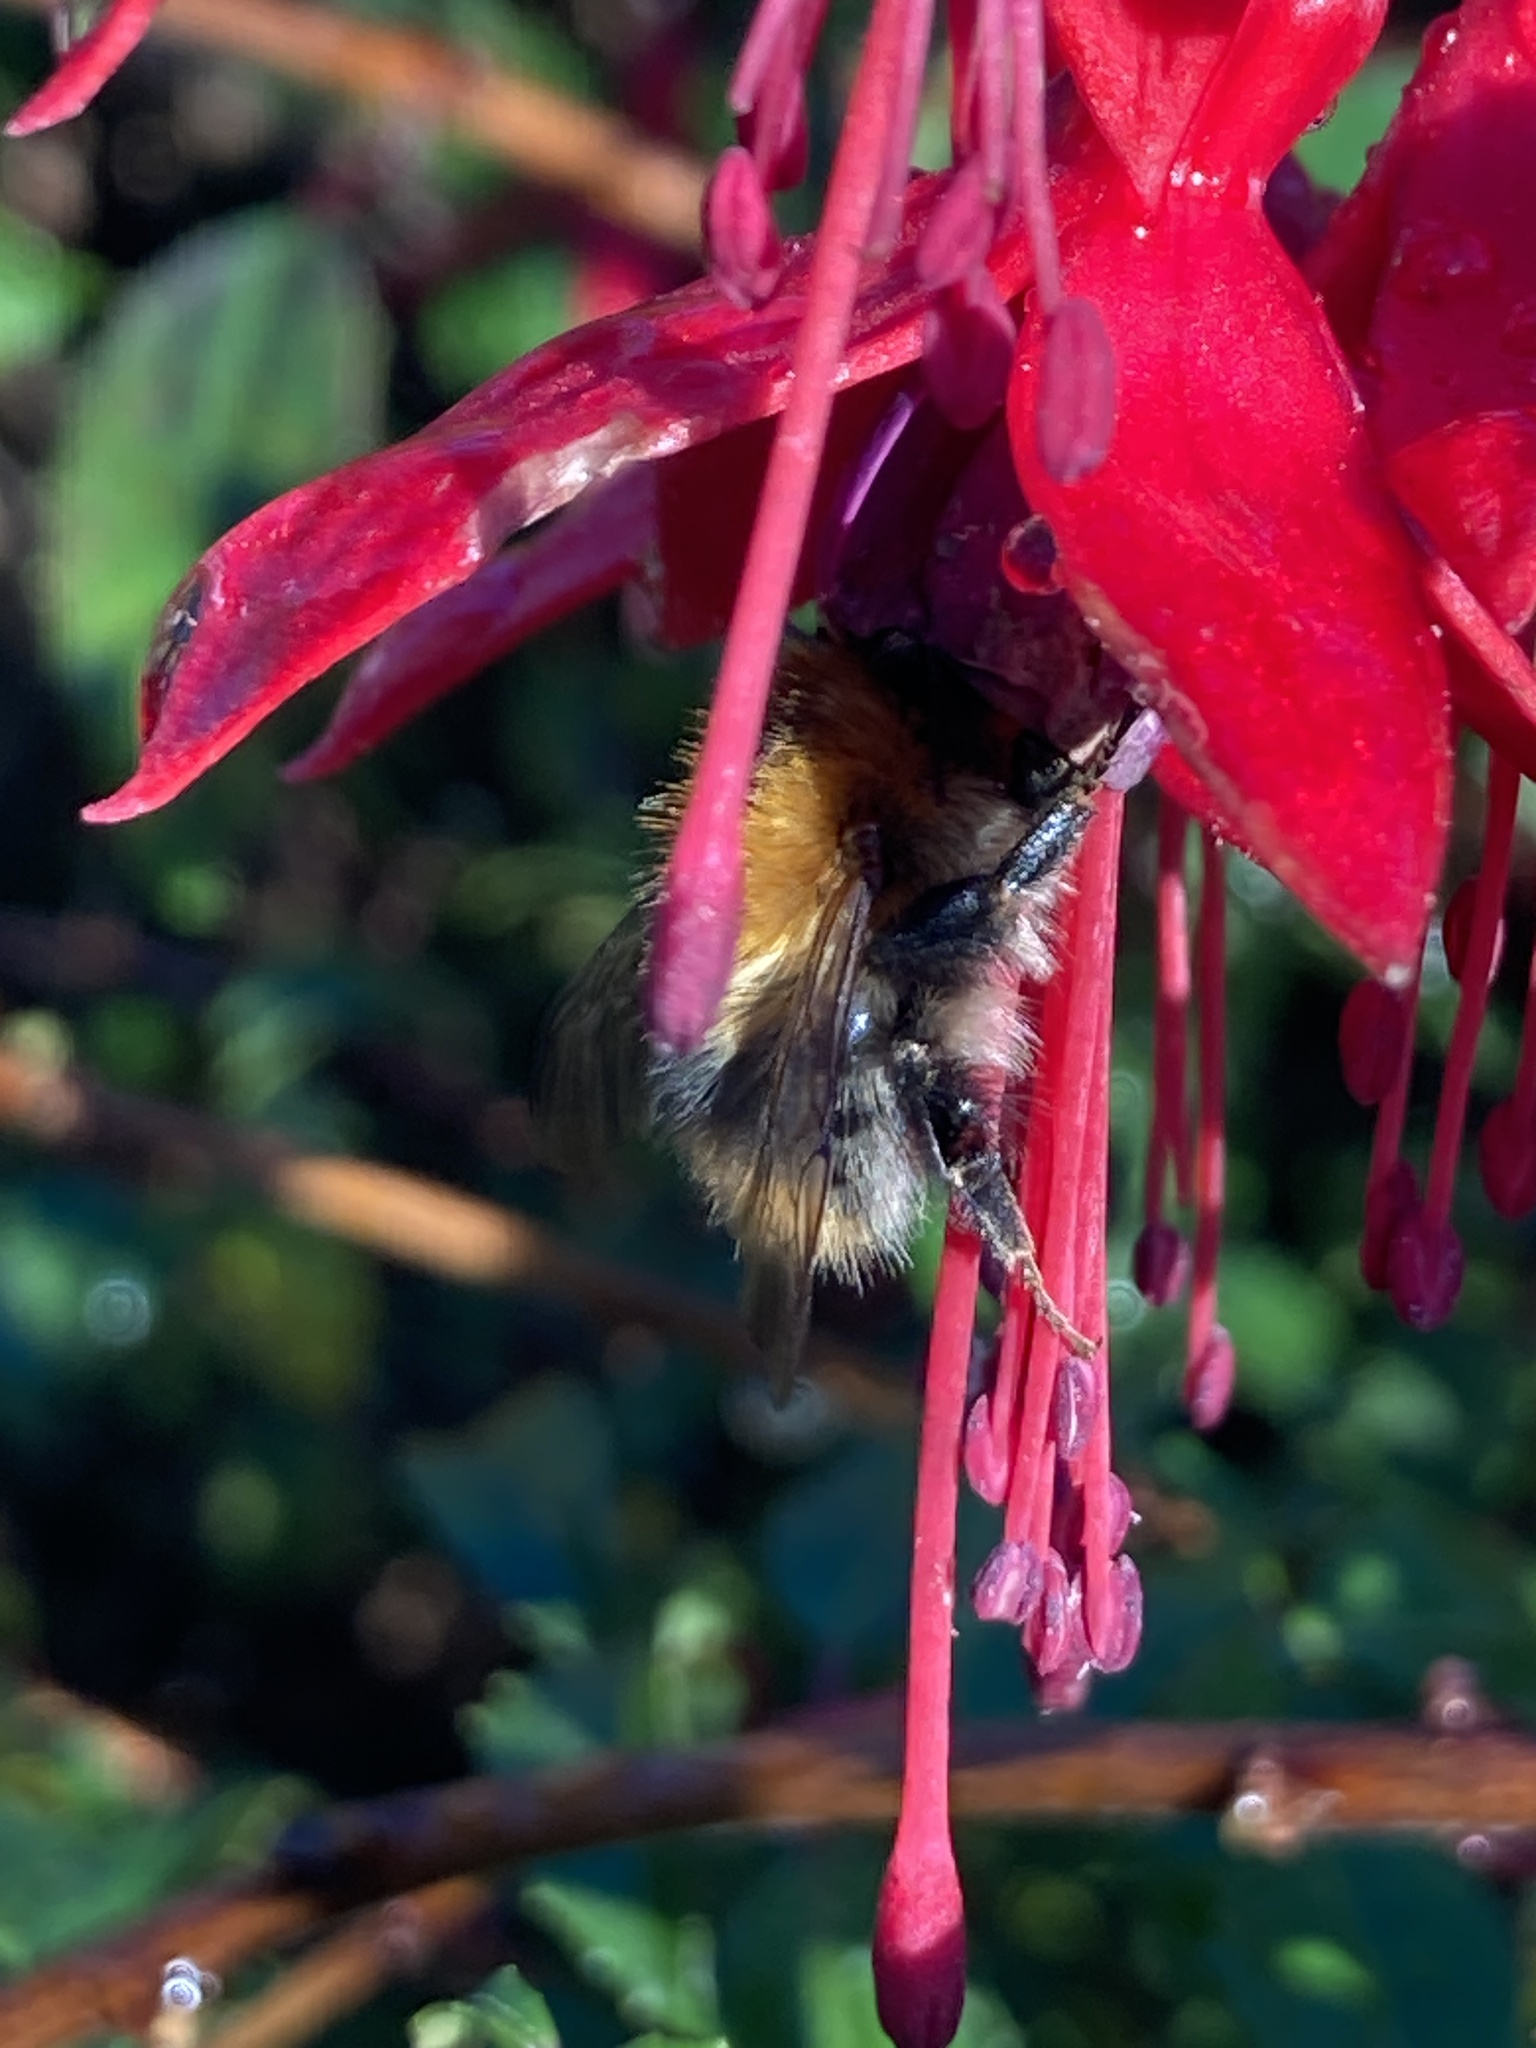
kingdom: Animalia
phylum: Arthropoda
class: Insecta
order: Hymenoptera
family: Apidae
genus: Bombus
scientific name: Bombus pascuorum
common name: Common carder bee
